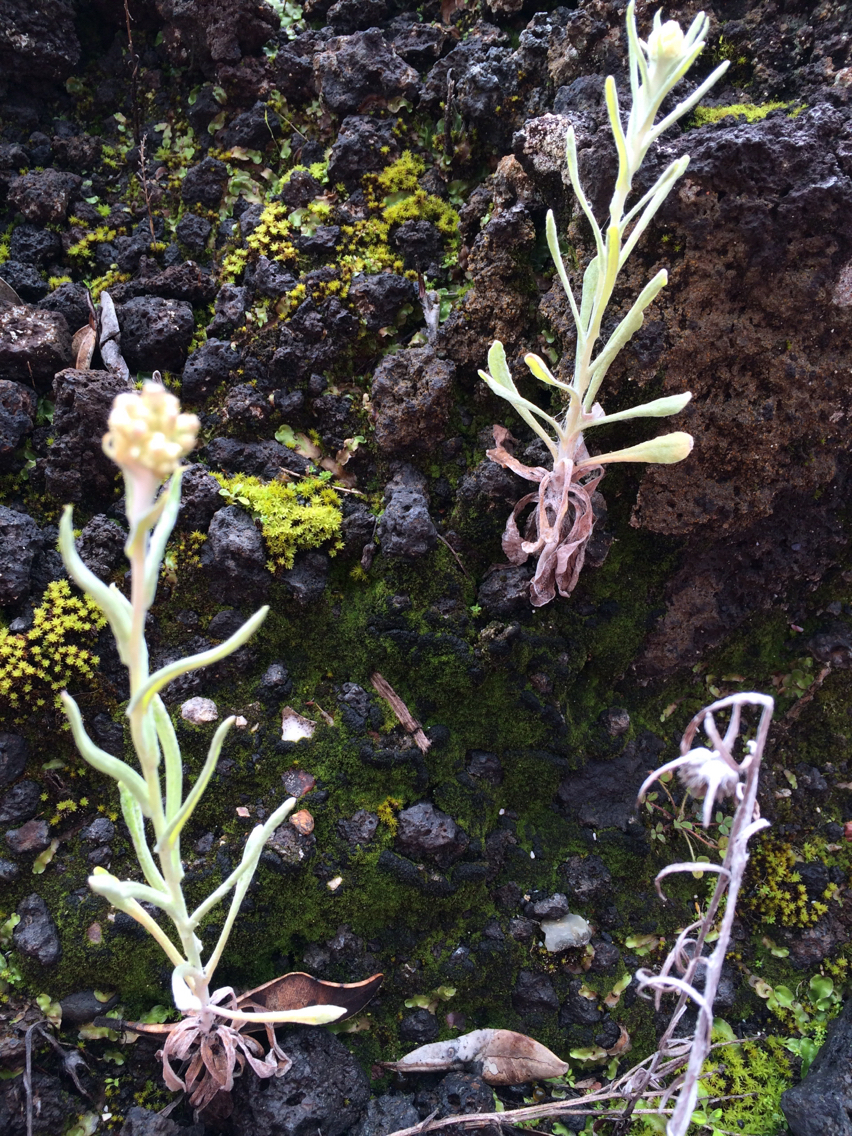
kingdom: Plantae
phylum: Tracheophyta
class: Magnoliopsida
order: Asterales
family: Asteraceae
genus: Helichrysum
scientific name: Helichrysum luteoalbum
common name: Daisy
